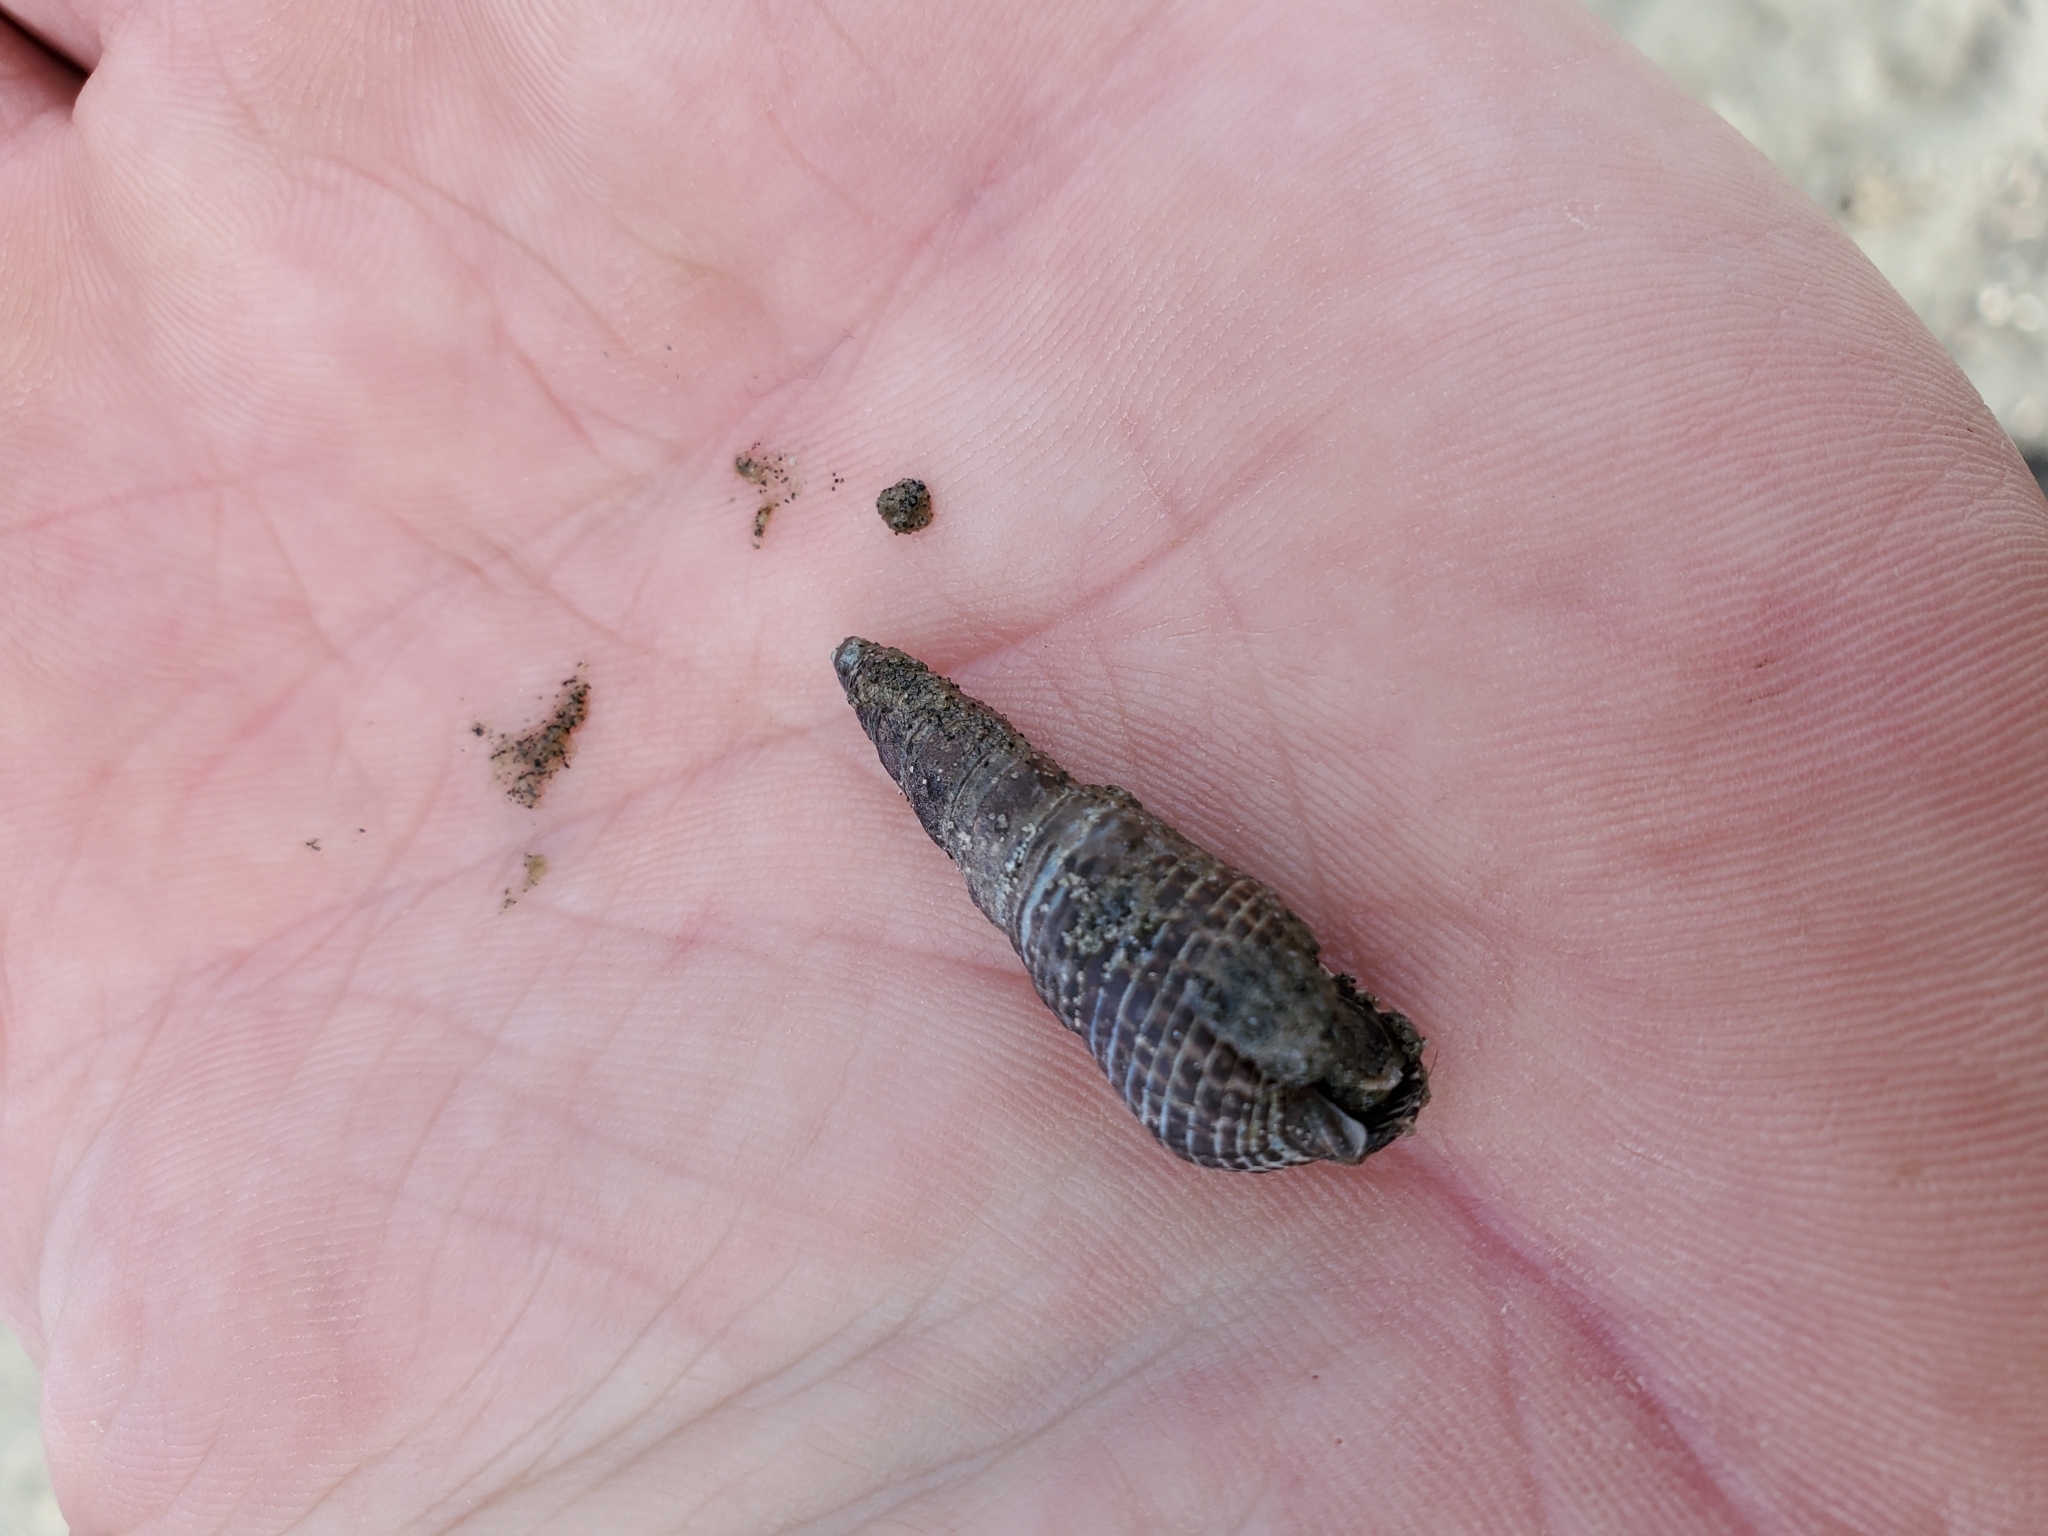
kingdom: Animalia
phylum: Mollusca
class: Gastropoda
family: Batillariidae
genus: Batillaria
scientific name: Batillaria attramentaria
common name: Japanese false cerith
